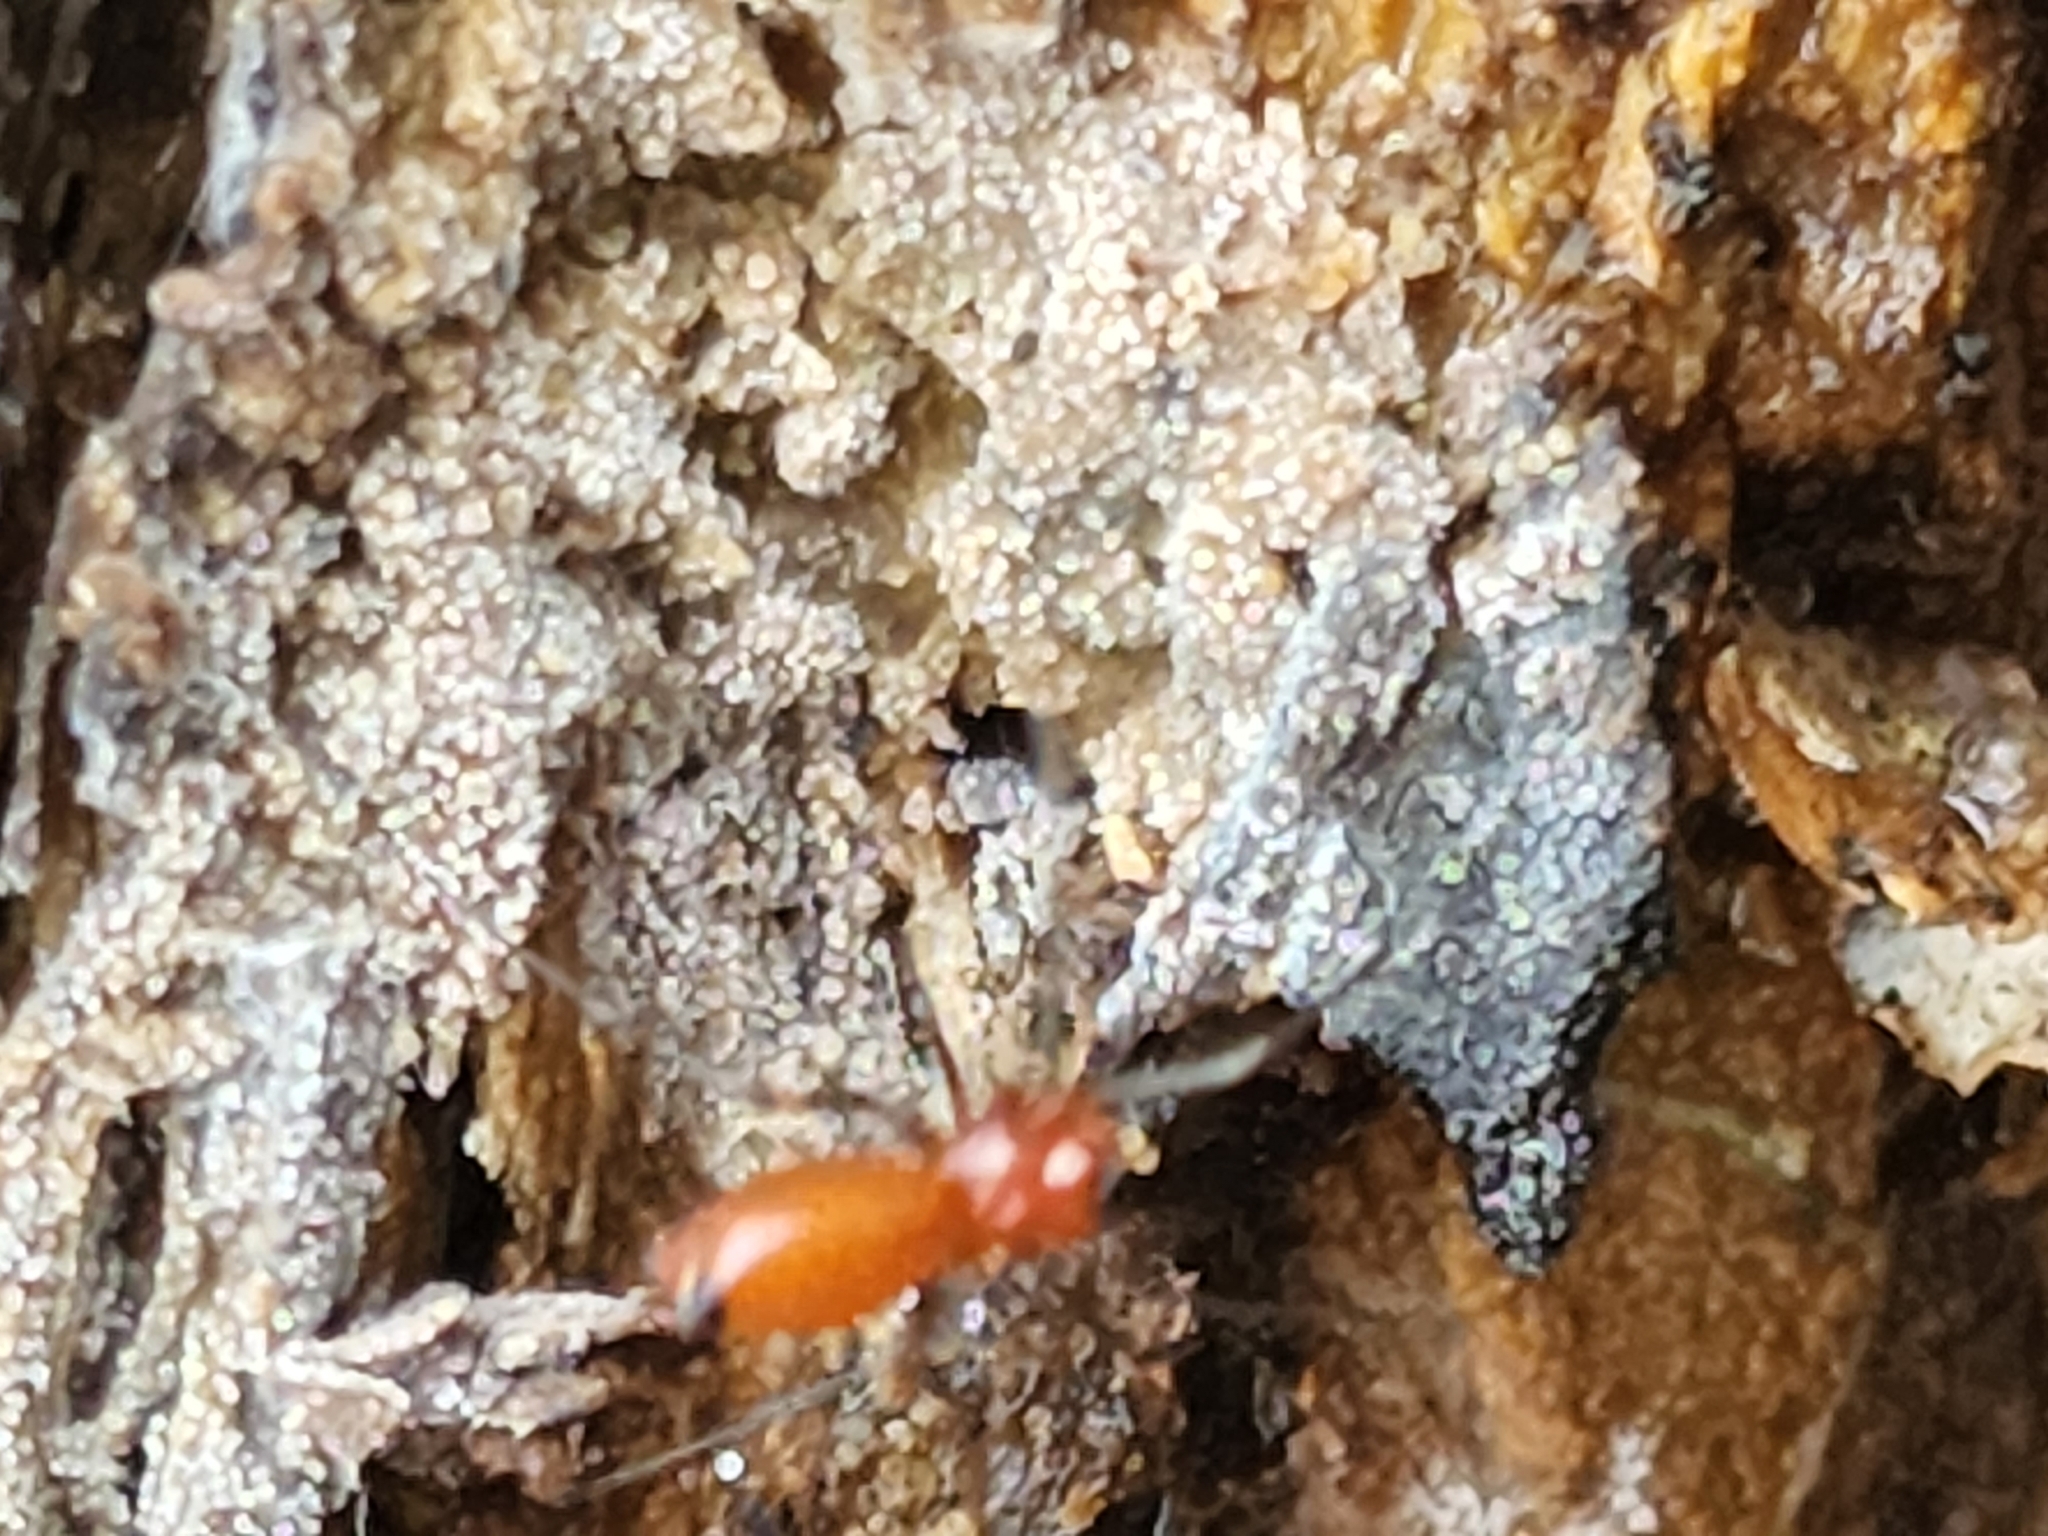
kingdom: Animalia
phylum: Arthropoda
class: Arachnida
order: Araneae
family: Linyphiidae
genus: Florinda
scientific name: Florinda coccinea
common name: Black-tailed red sheetweaver
